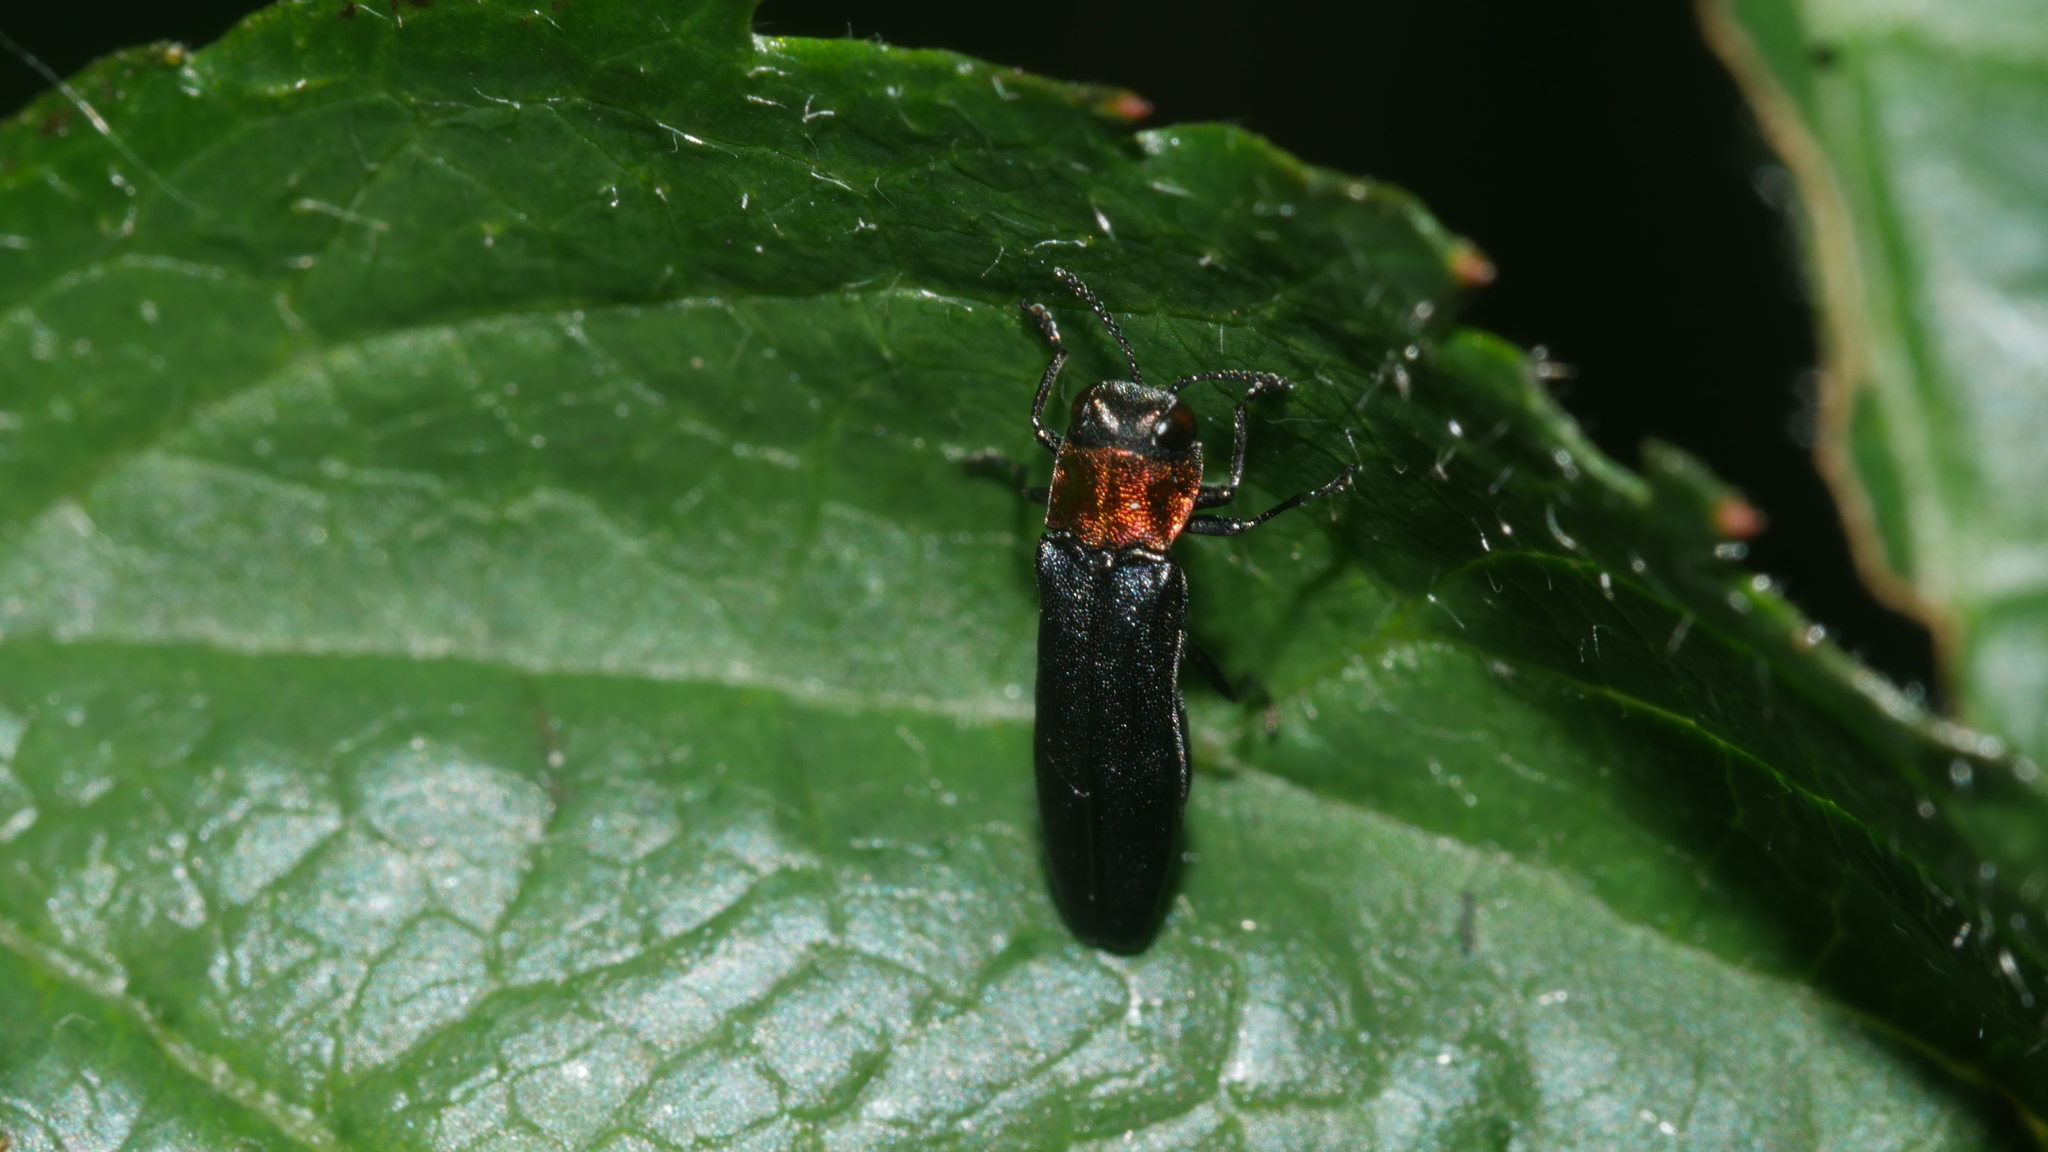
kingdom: Animalia
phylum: Arthropoda
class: Insecta
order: Coleoptera
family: Buprestidae
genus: Agrilus
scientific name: Agrilus ruficollis
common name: Red-necked cane borer beetle
